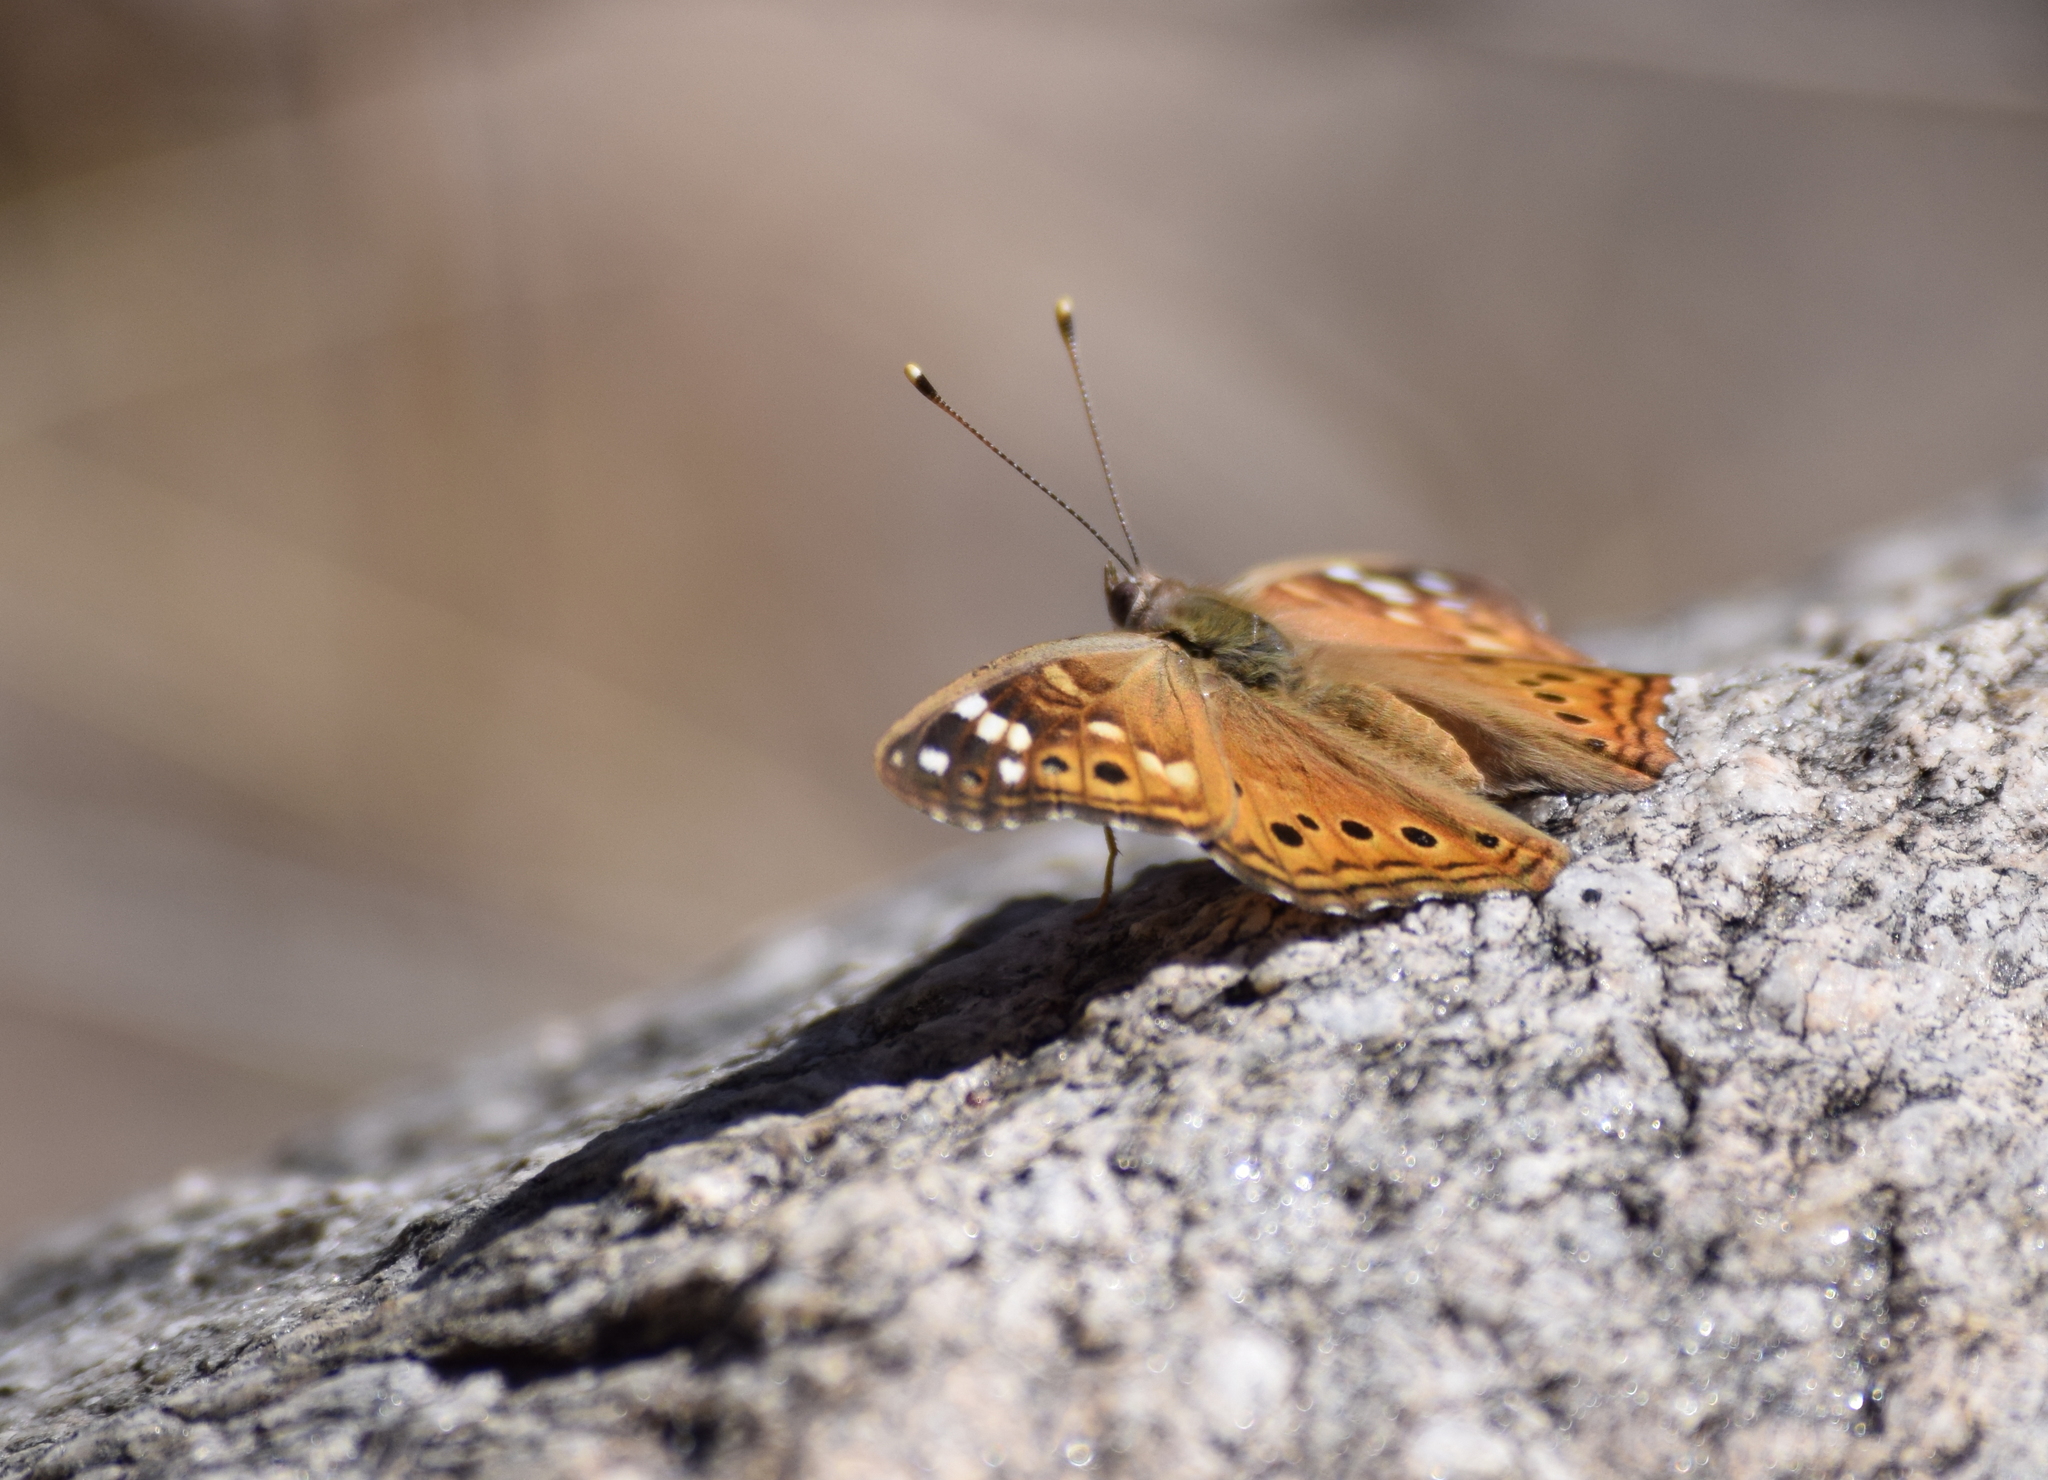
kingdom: Animalia
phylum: Arthropoda
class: Insecta
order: Lepidoptera
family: Nymphalidae
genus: Asterocampa
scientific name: Asterocampa leilia
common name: Empress leilia
